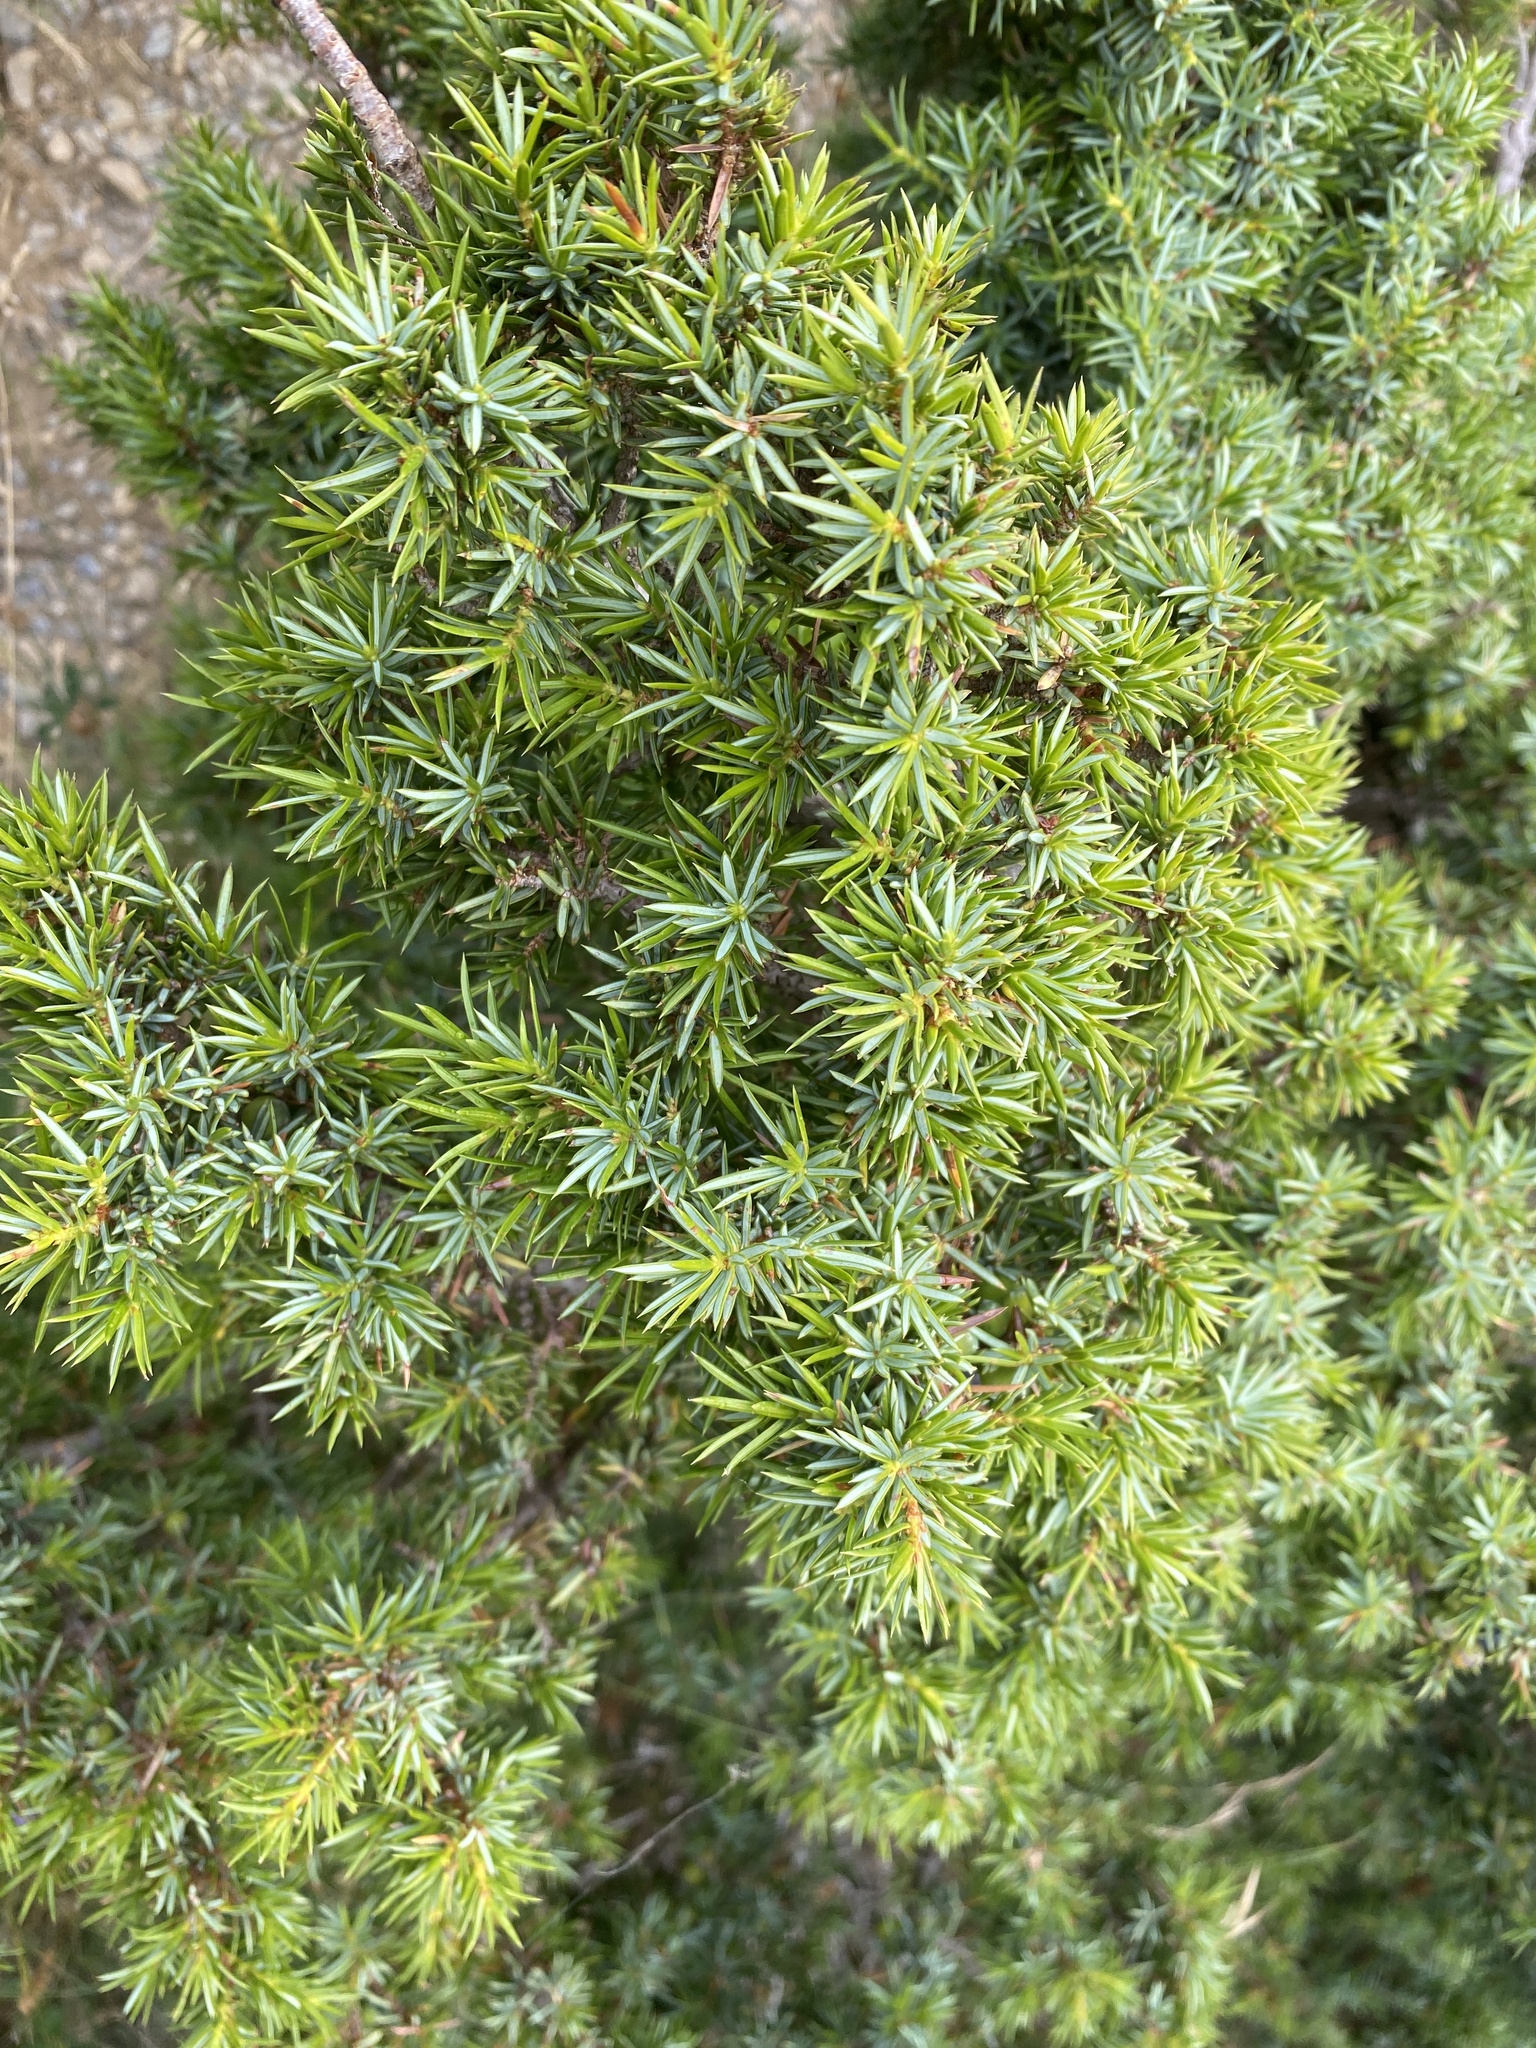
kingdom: Plantae
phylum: Tracheophyta
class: Pinopsida
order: Pinales
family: Cupressaceae
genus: Juniperus
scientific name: Juniperus communis
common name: Common juniper
